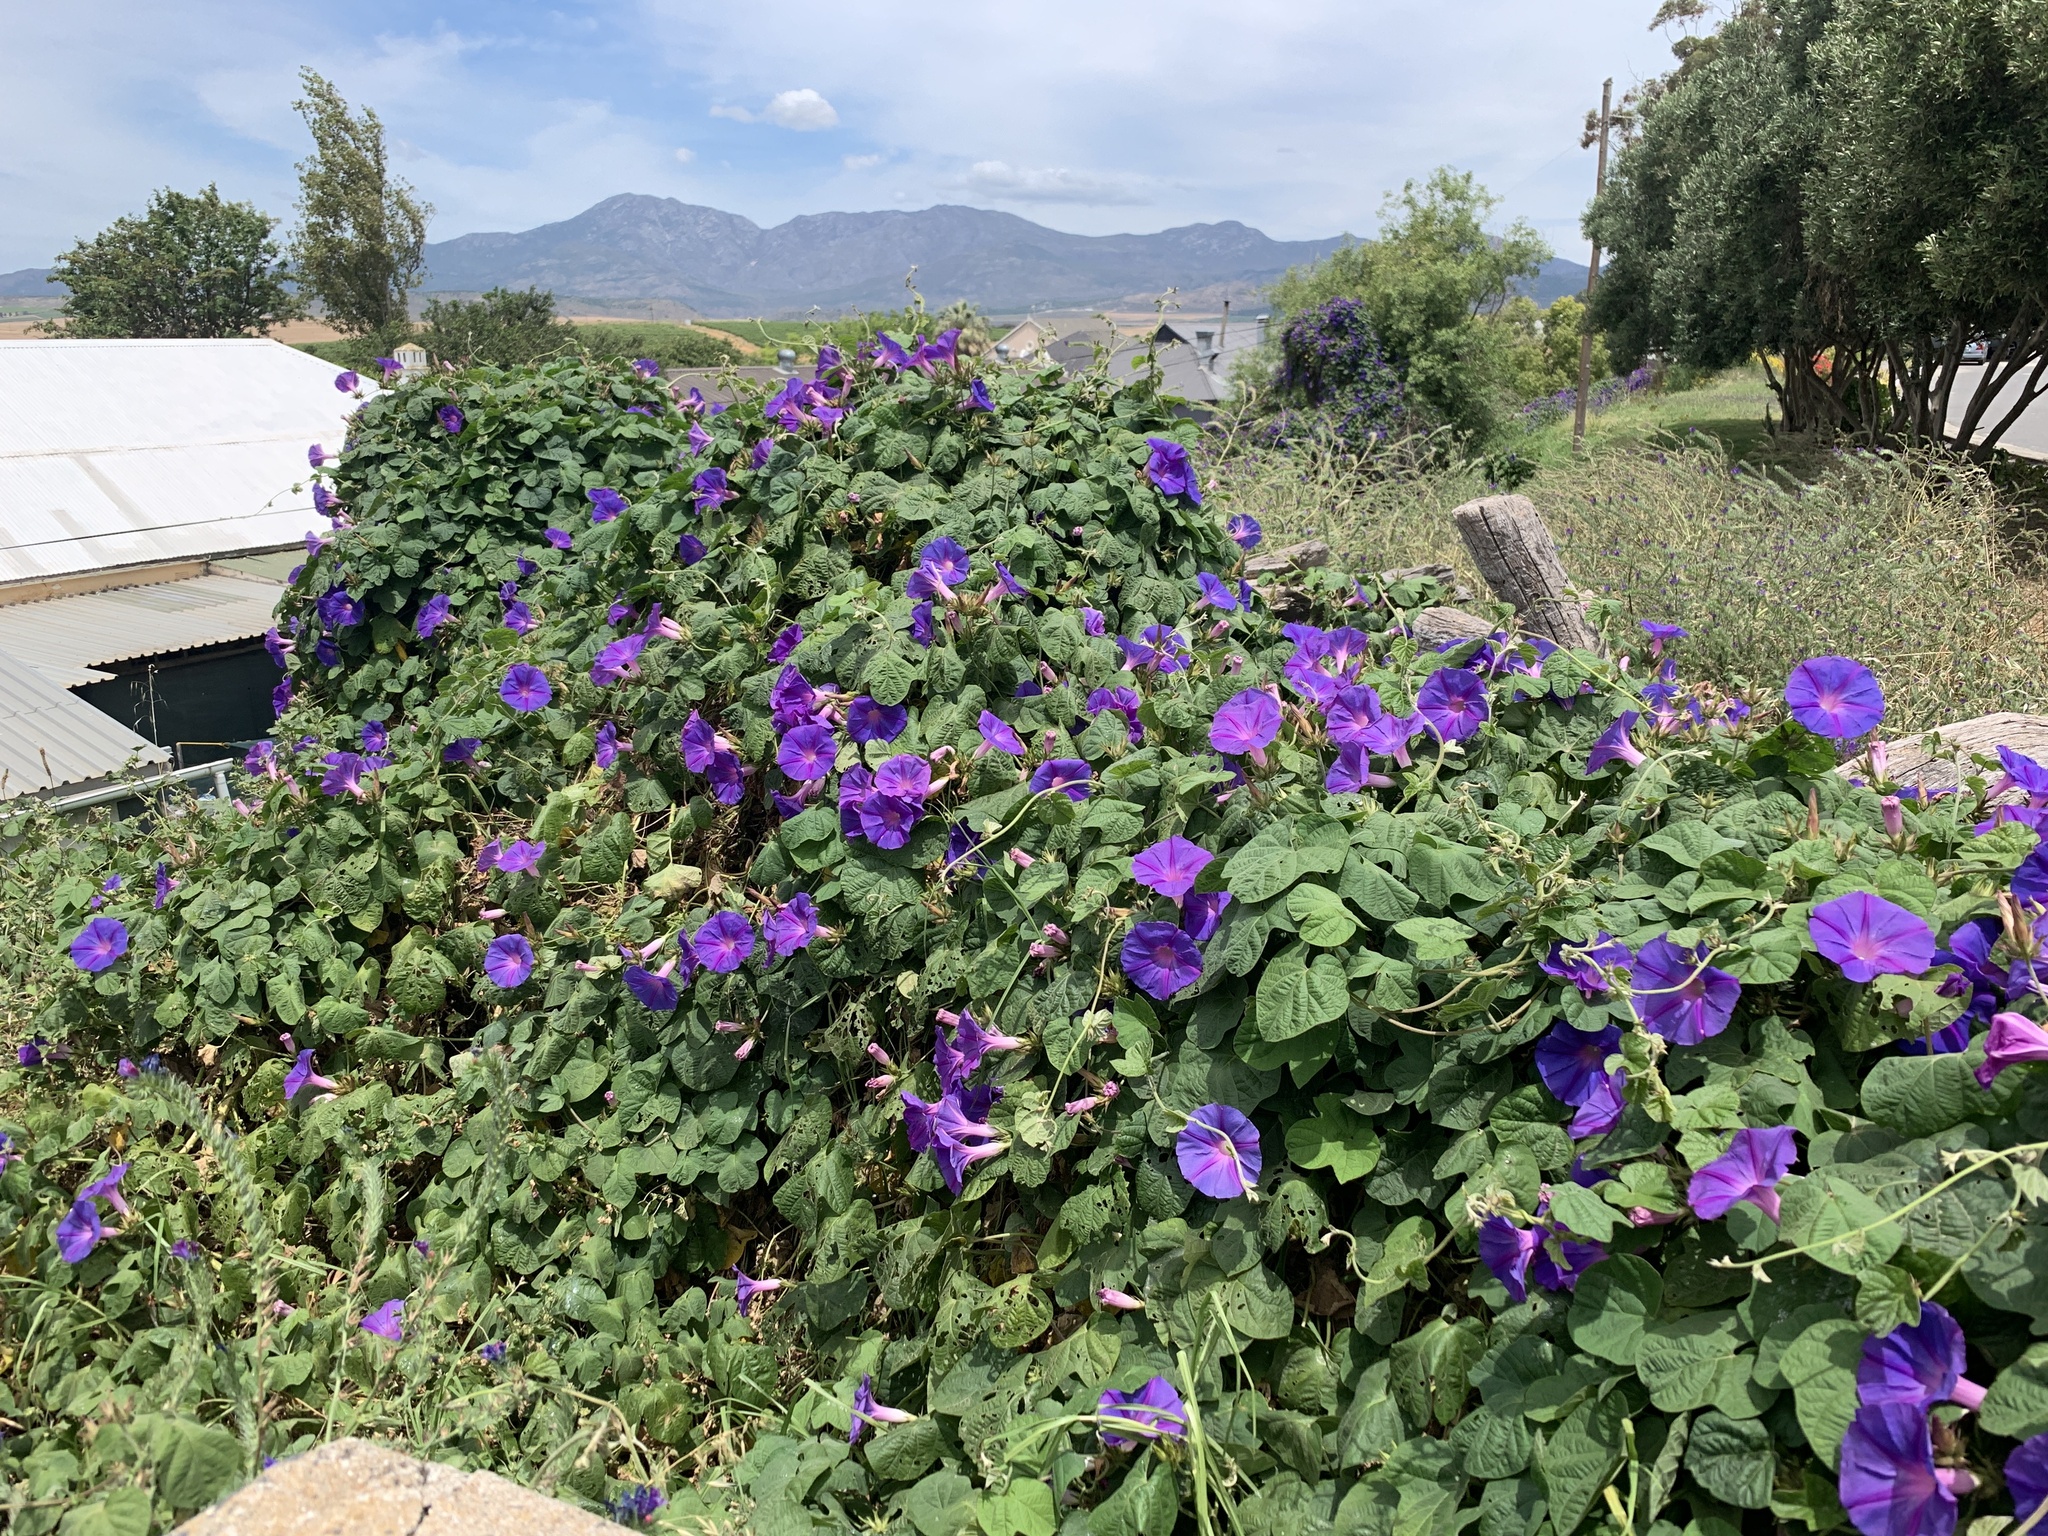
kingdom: Plantae
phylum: Tracheophyta
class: Magnoliopsida
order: Solanales
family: Convolvulaceae
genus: Ipomoea
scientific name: Ipomoea indica
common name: Blue dawnflower
